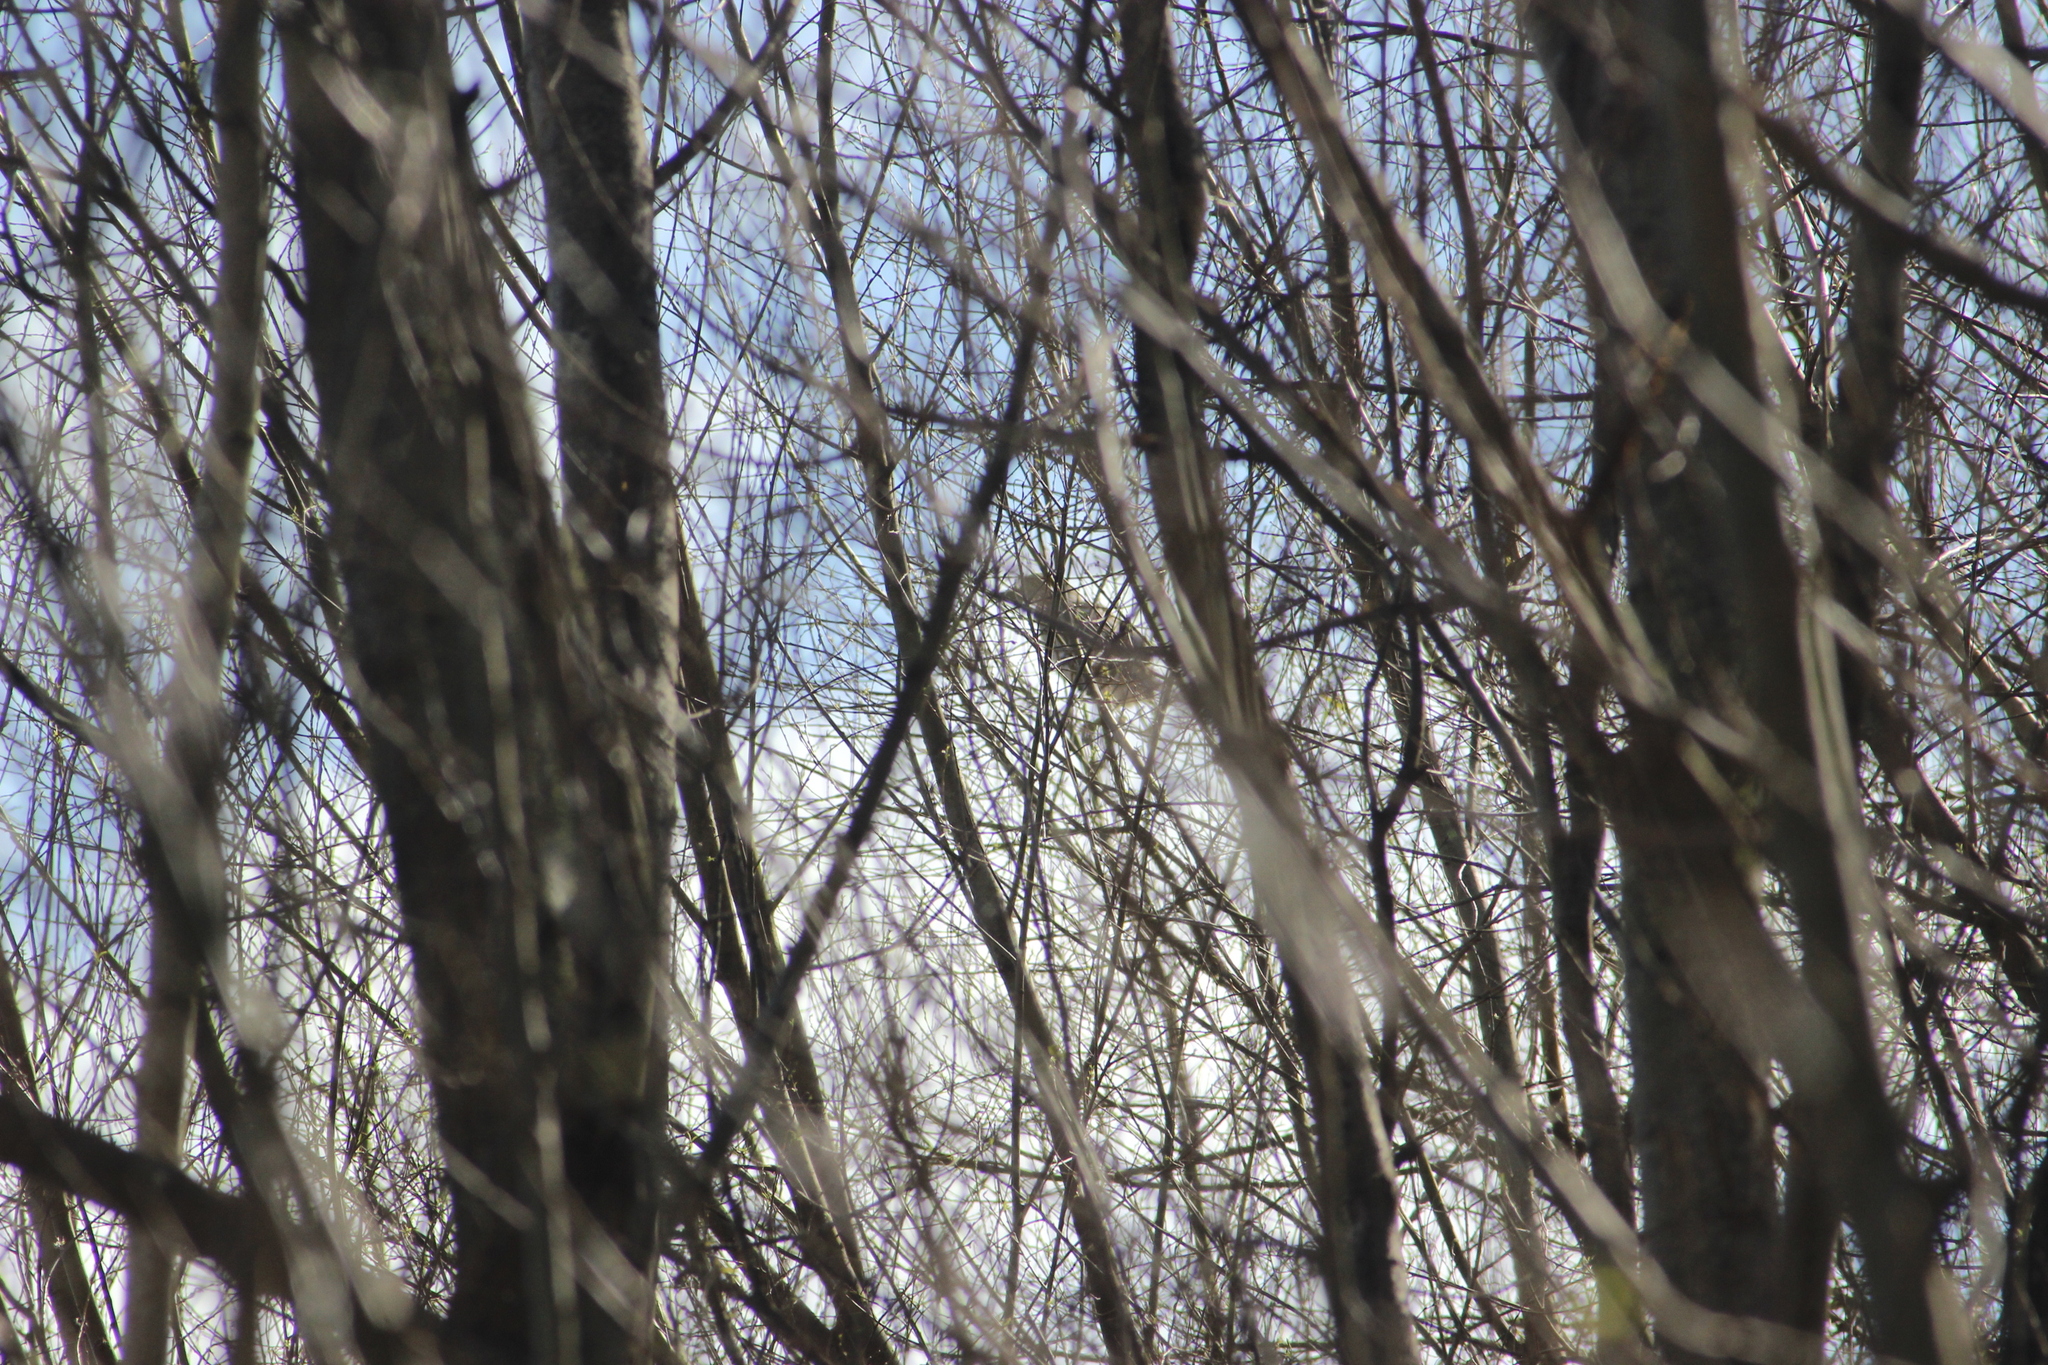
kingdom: Animalia
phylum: Chordata
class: Aves
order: Pelecaniformes
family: Ardeidae
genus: Nycticorax
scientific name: Nycticorax caledonicus
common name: Rufous night-heron
